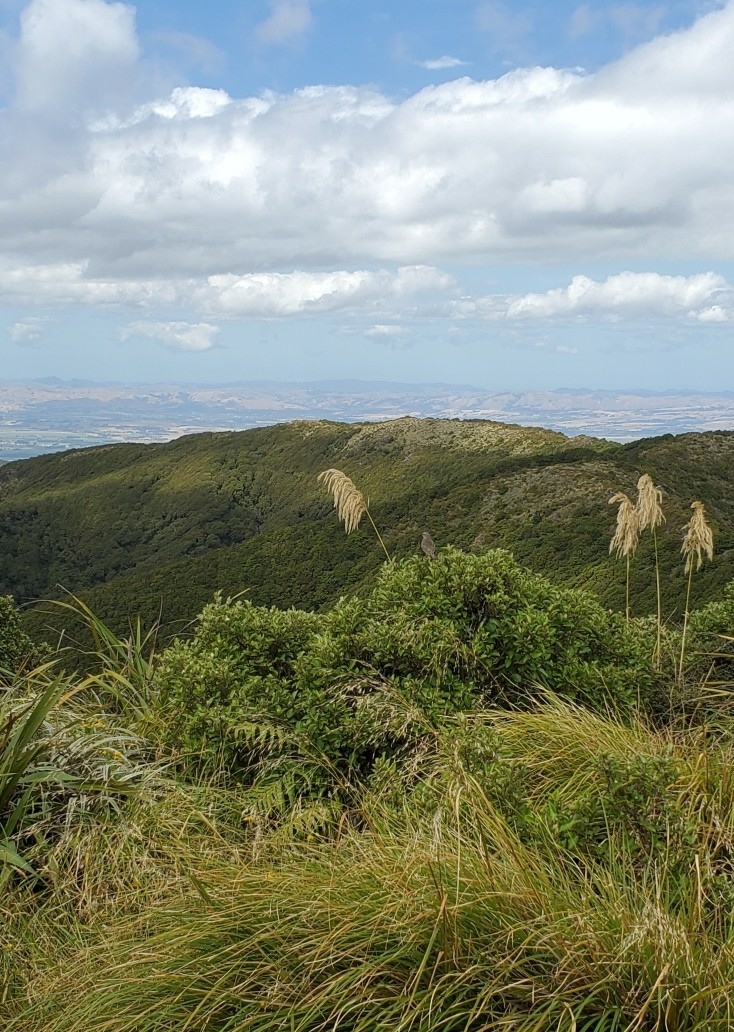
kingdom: Animalia
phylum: Chordata
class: Aves
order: Passeriformes
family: Motacillidae
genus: Anthus
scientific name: Anthus novaeseelandiae
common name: New zealand pipit
